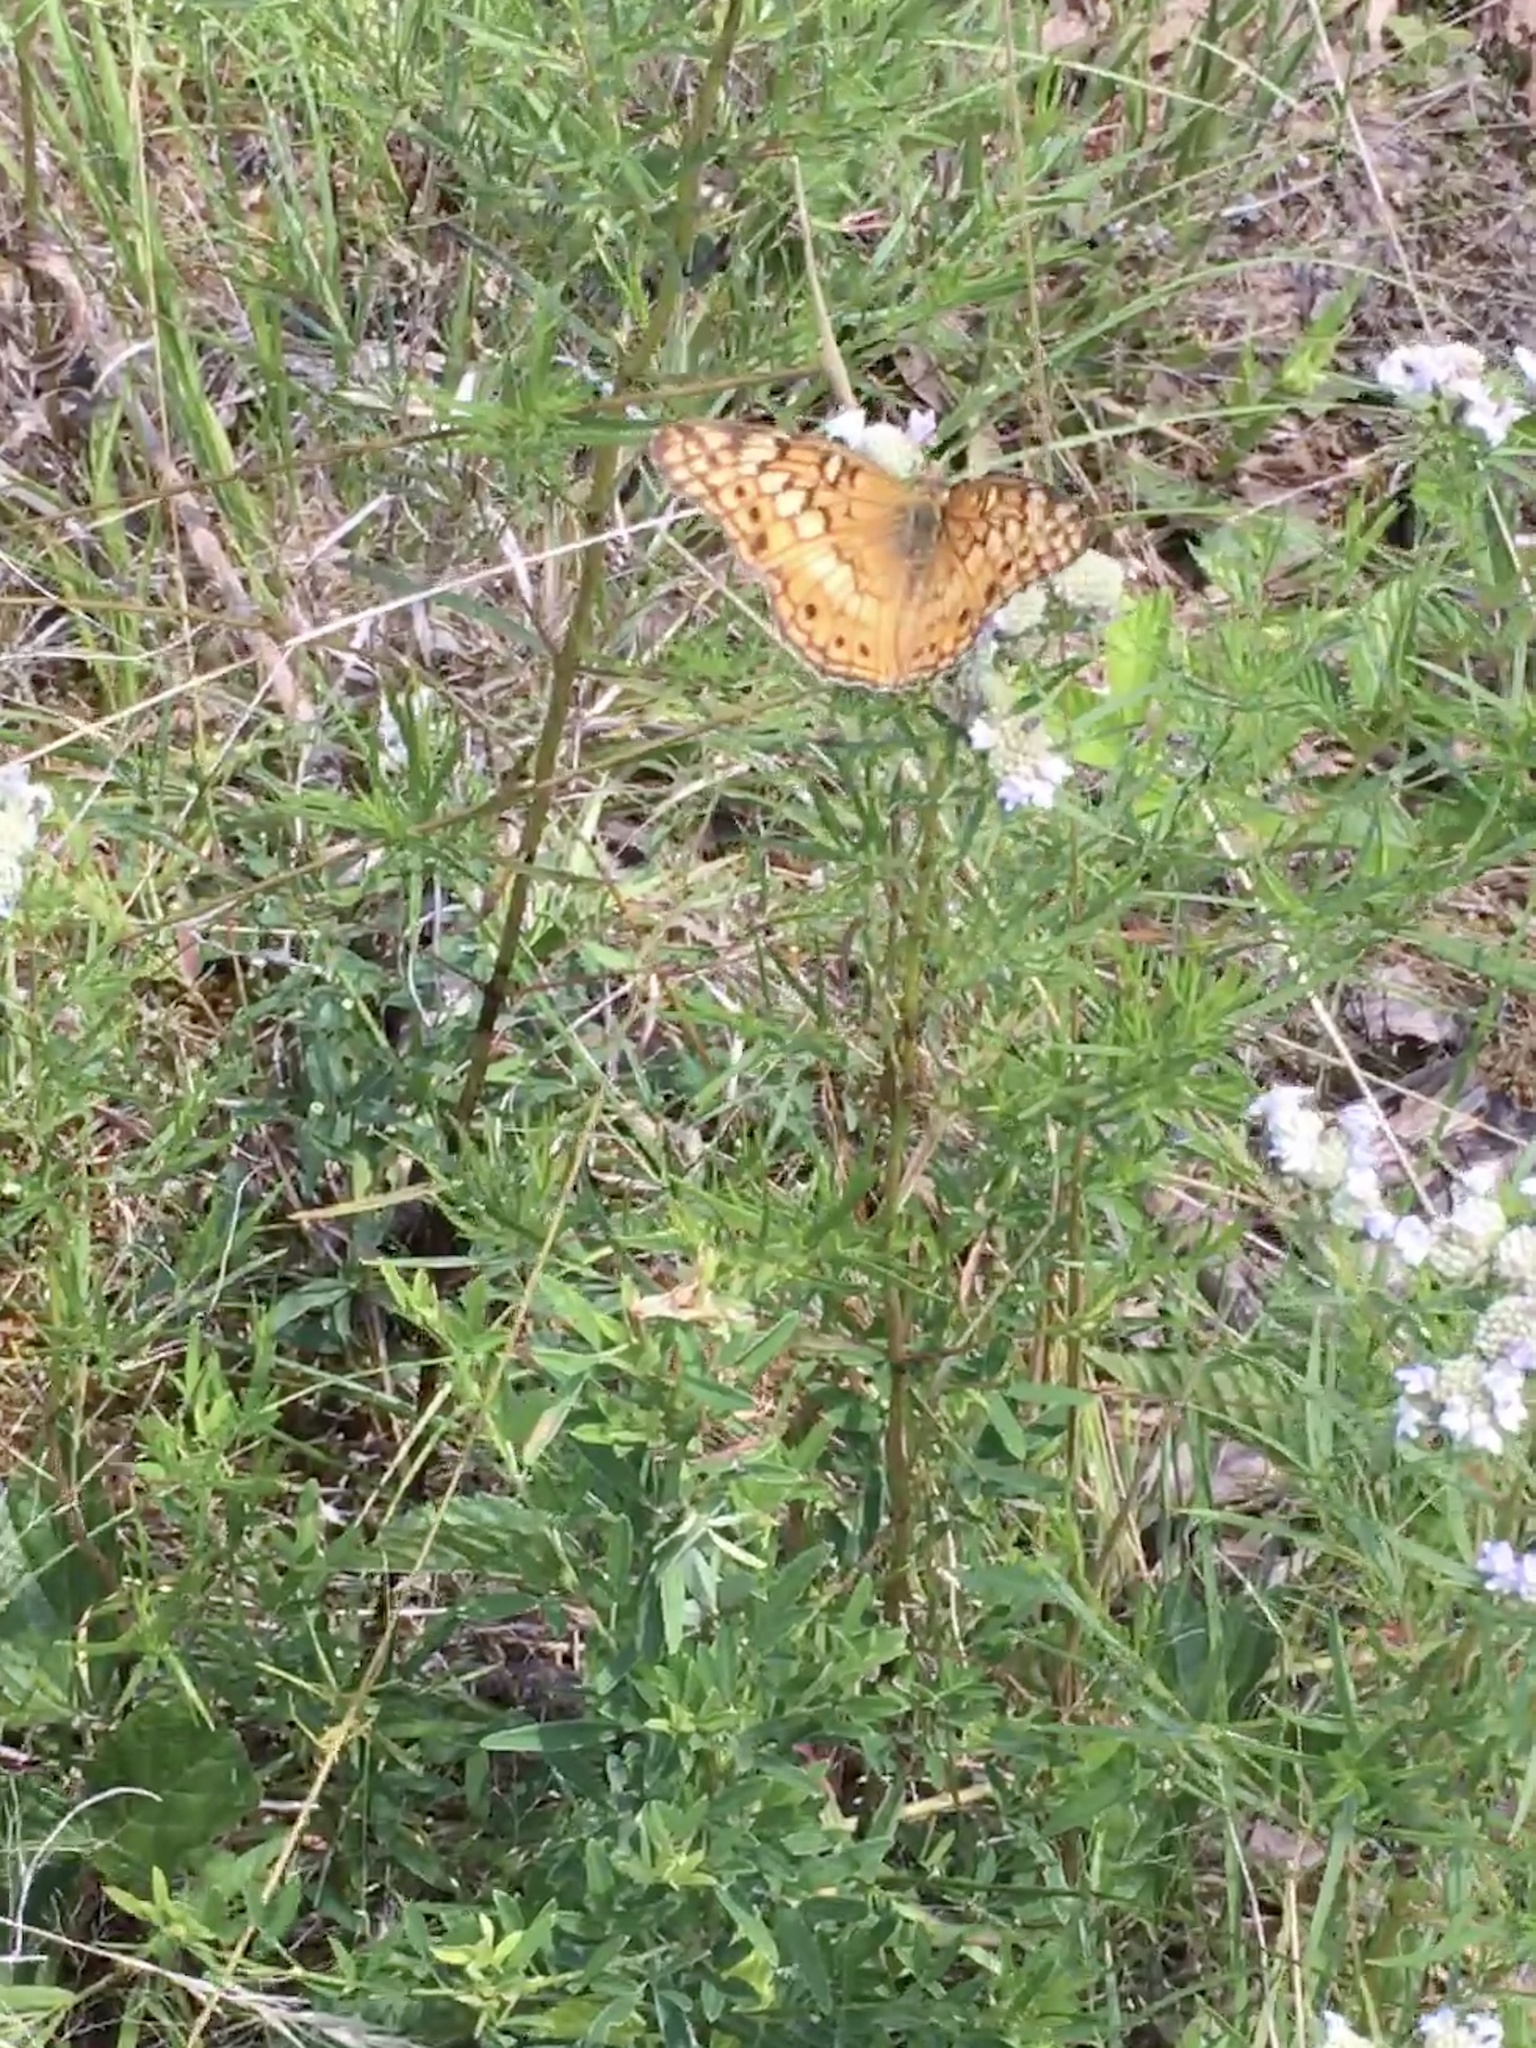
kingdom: Animalia
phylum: Arthropoda
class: Insecta
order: Lepidoptera
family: Nymphalidae
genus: Euptoieta
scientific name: Euptoieta claudia
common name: Variegated fritillary
